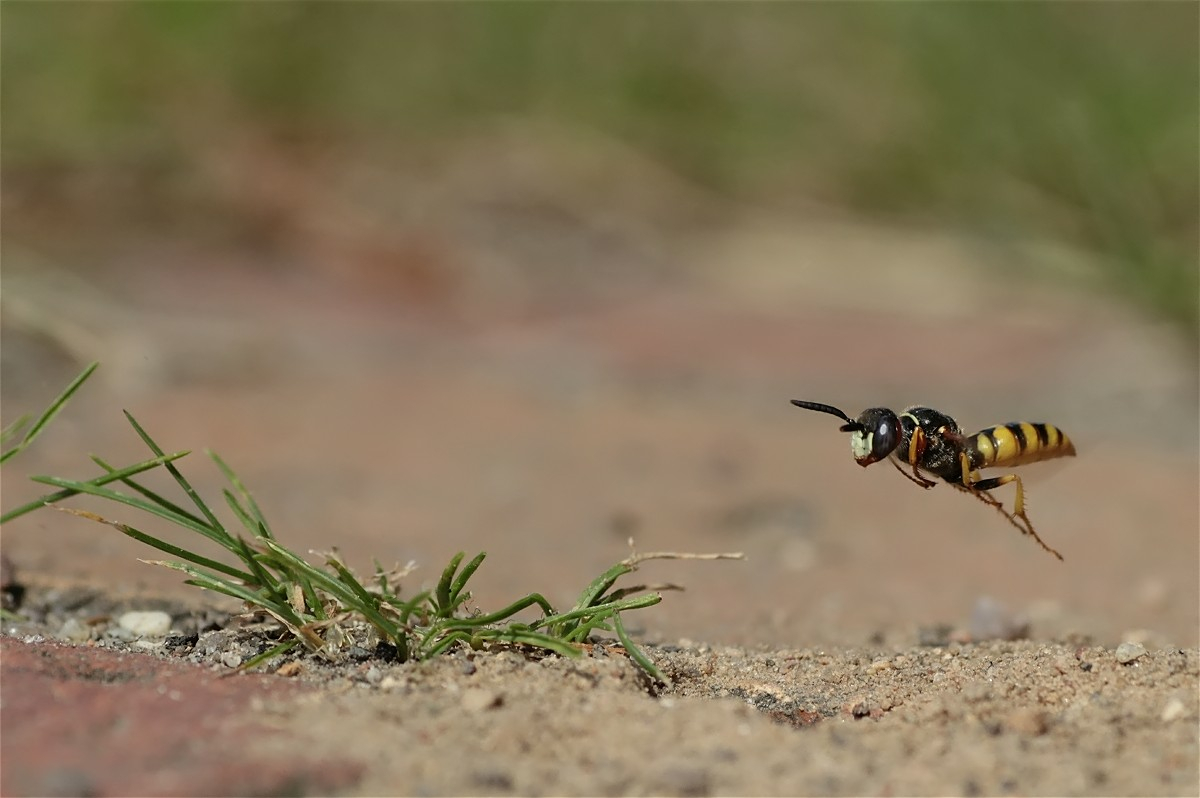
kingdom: Animalia
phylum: Arthropoda
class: Insecta
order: Hymenoptera
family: Crabronidae
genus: Philanthus
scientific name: Philanthus triangulum
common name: Bee wolf
